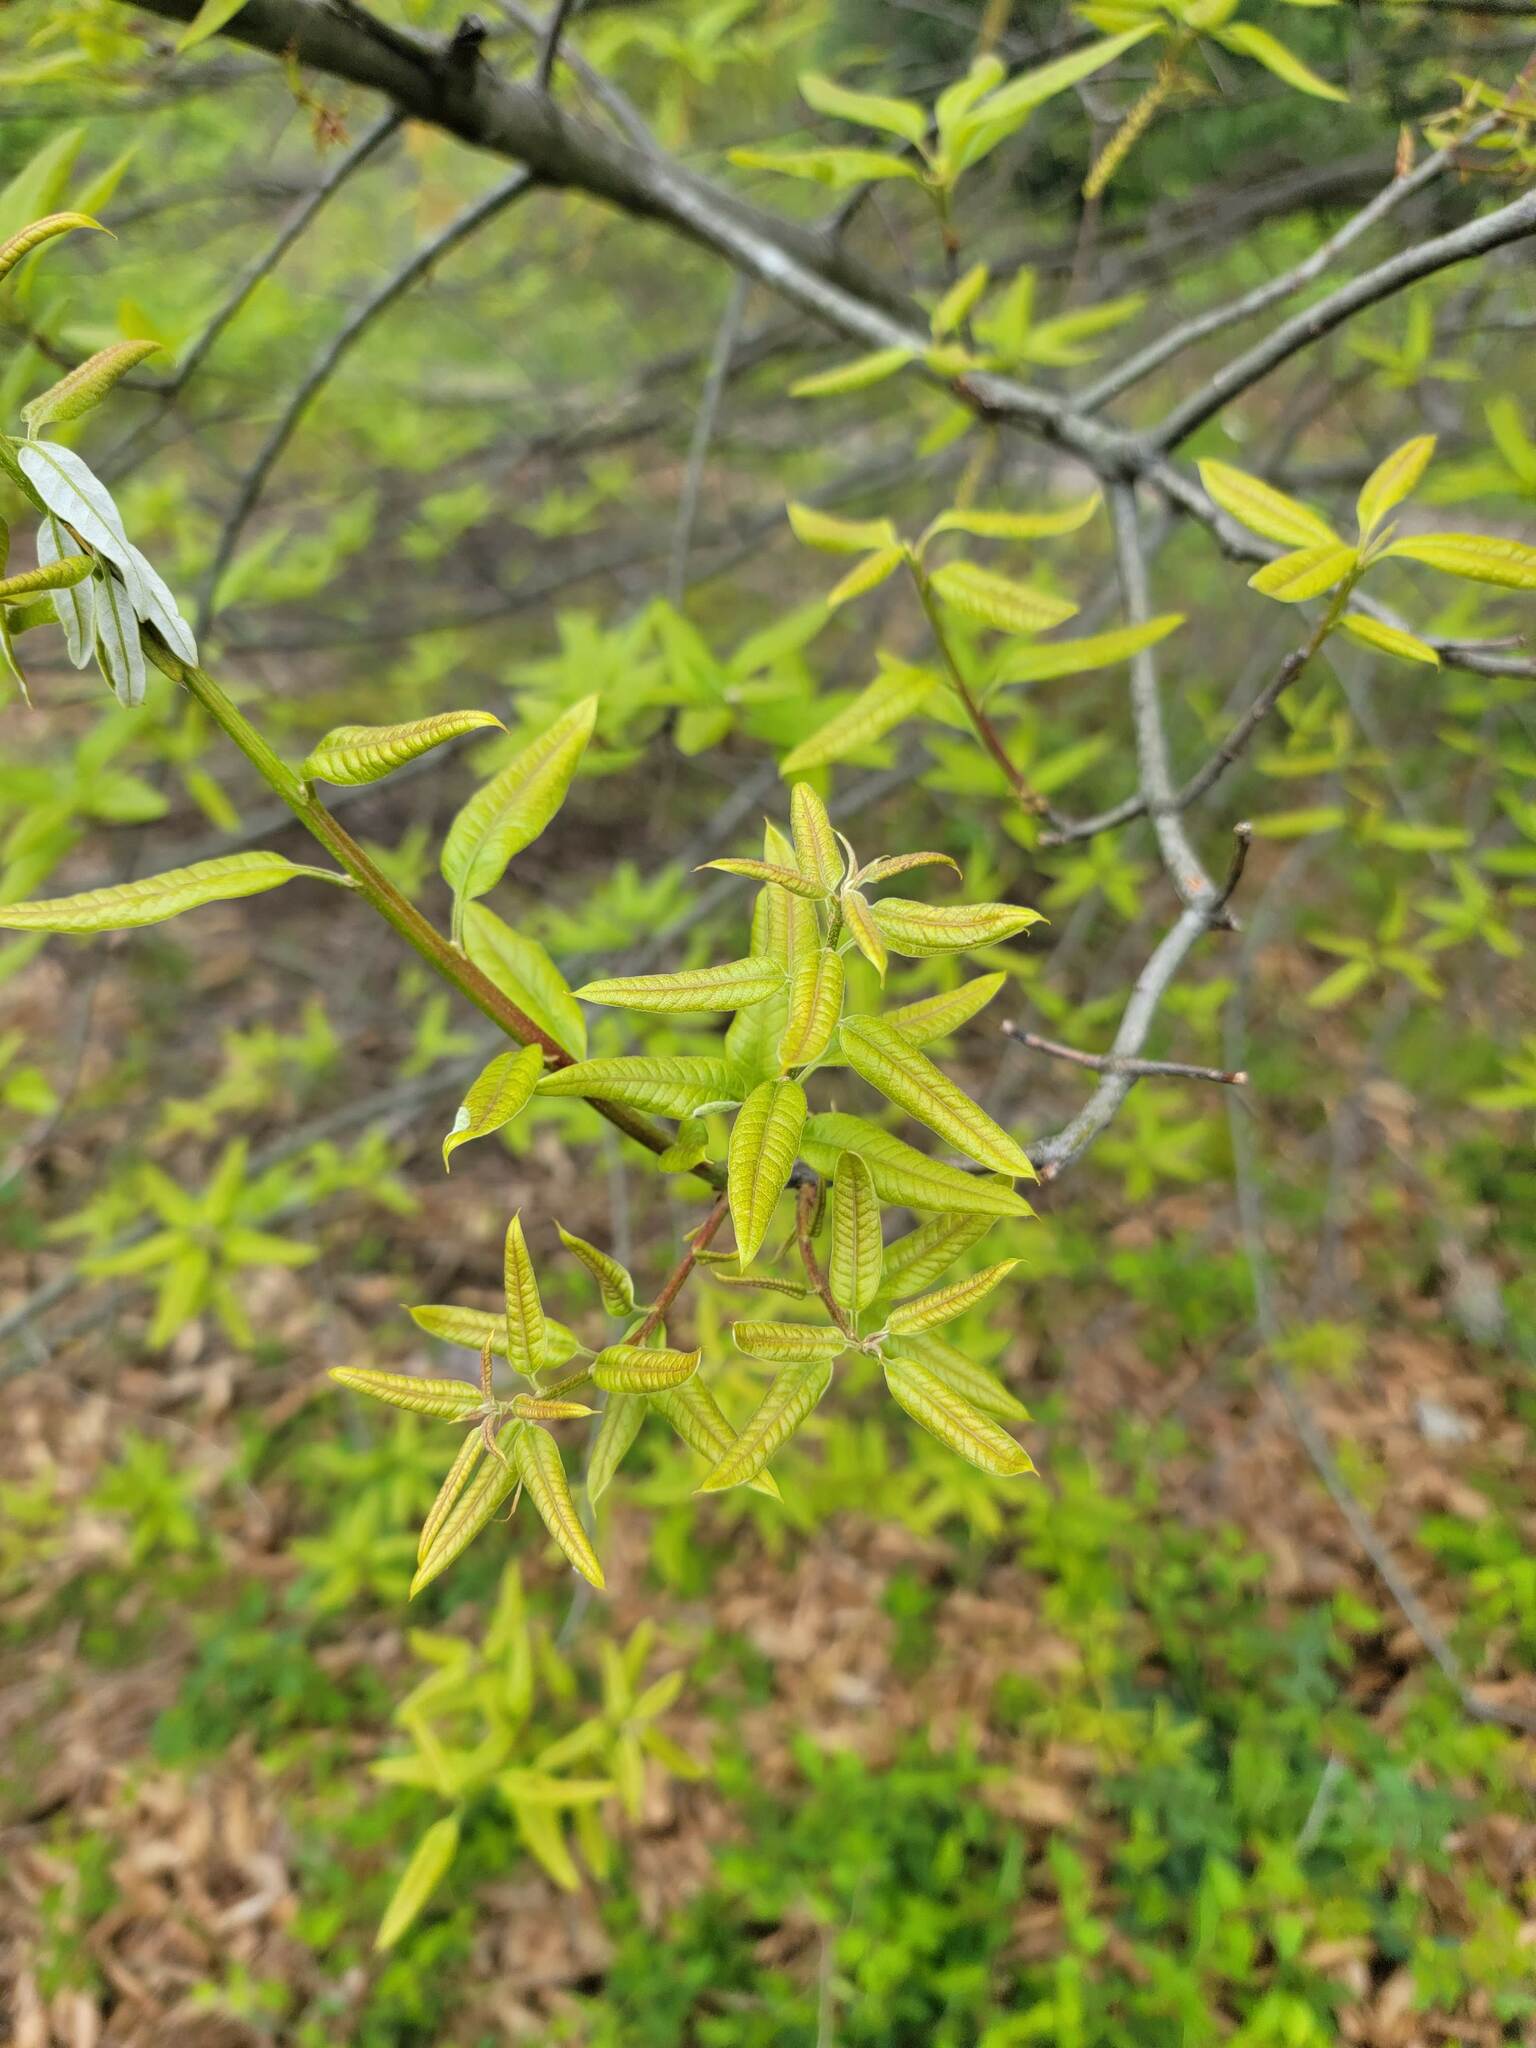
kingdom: Plantae
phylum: Tracheophyta
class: Magnoliopsida
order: Fagales
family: Fagaceae
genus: Quercus
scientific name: Quercus imbricaria
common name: Shingle oak
